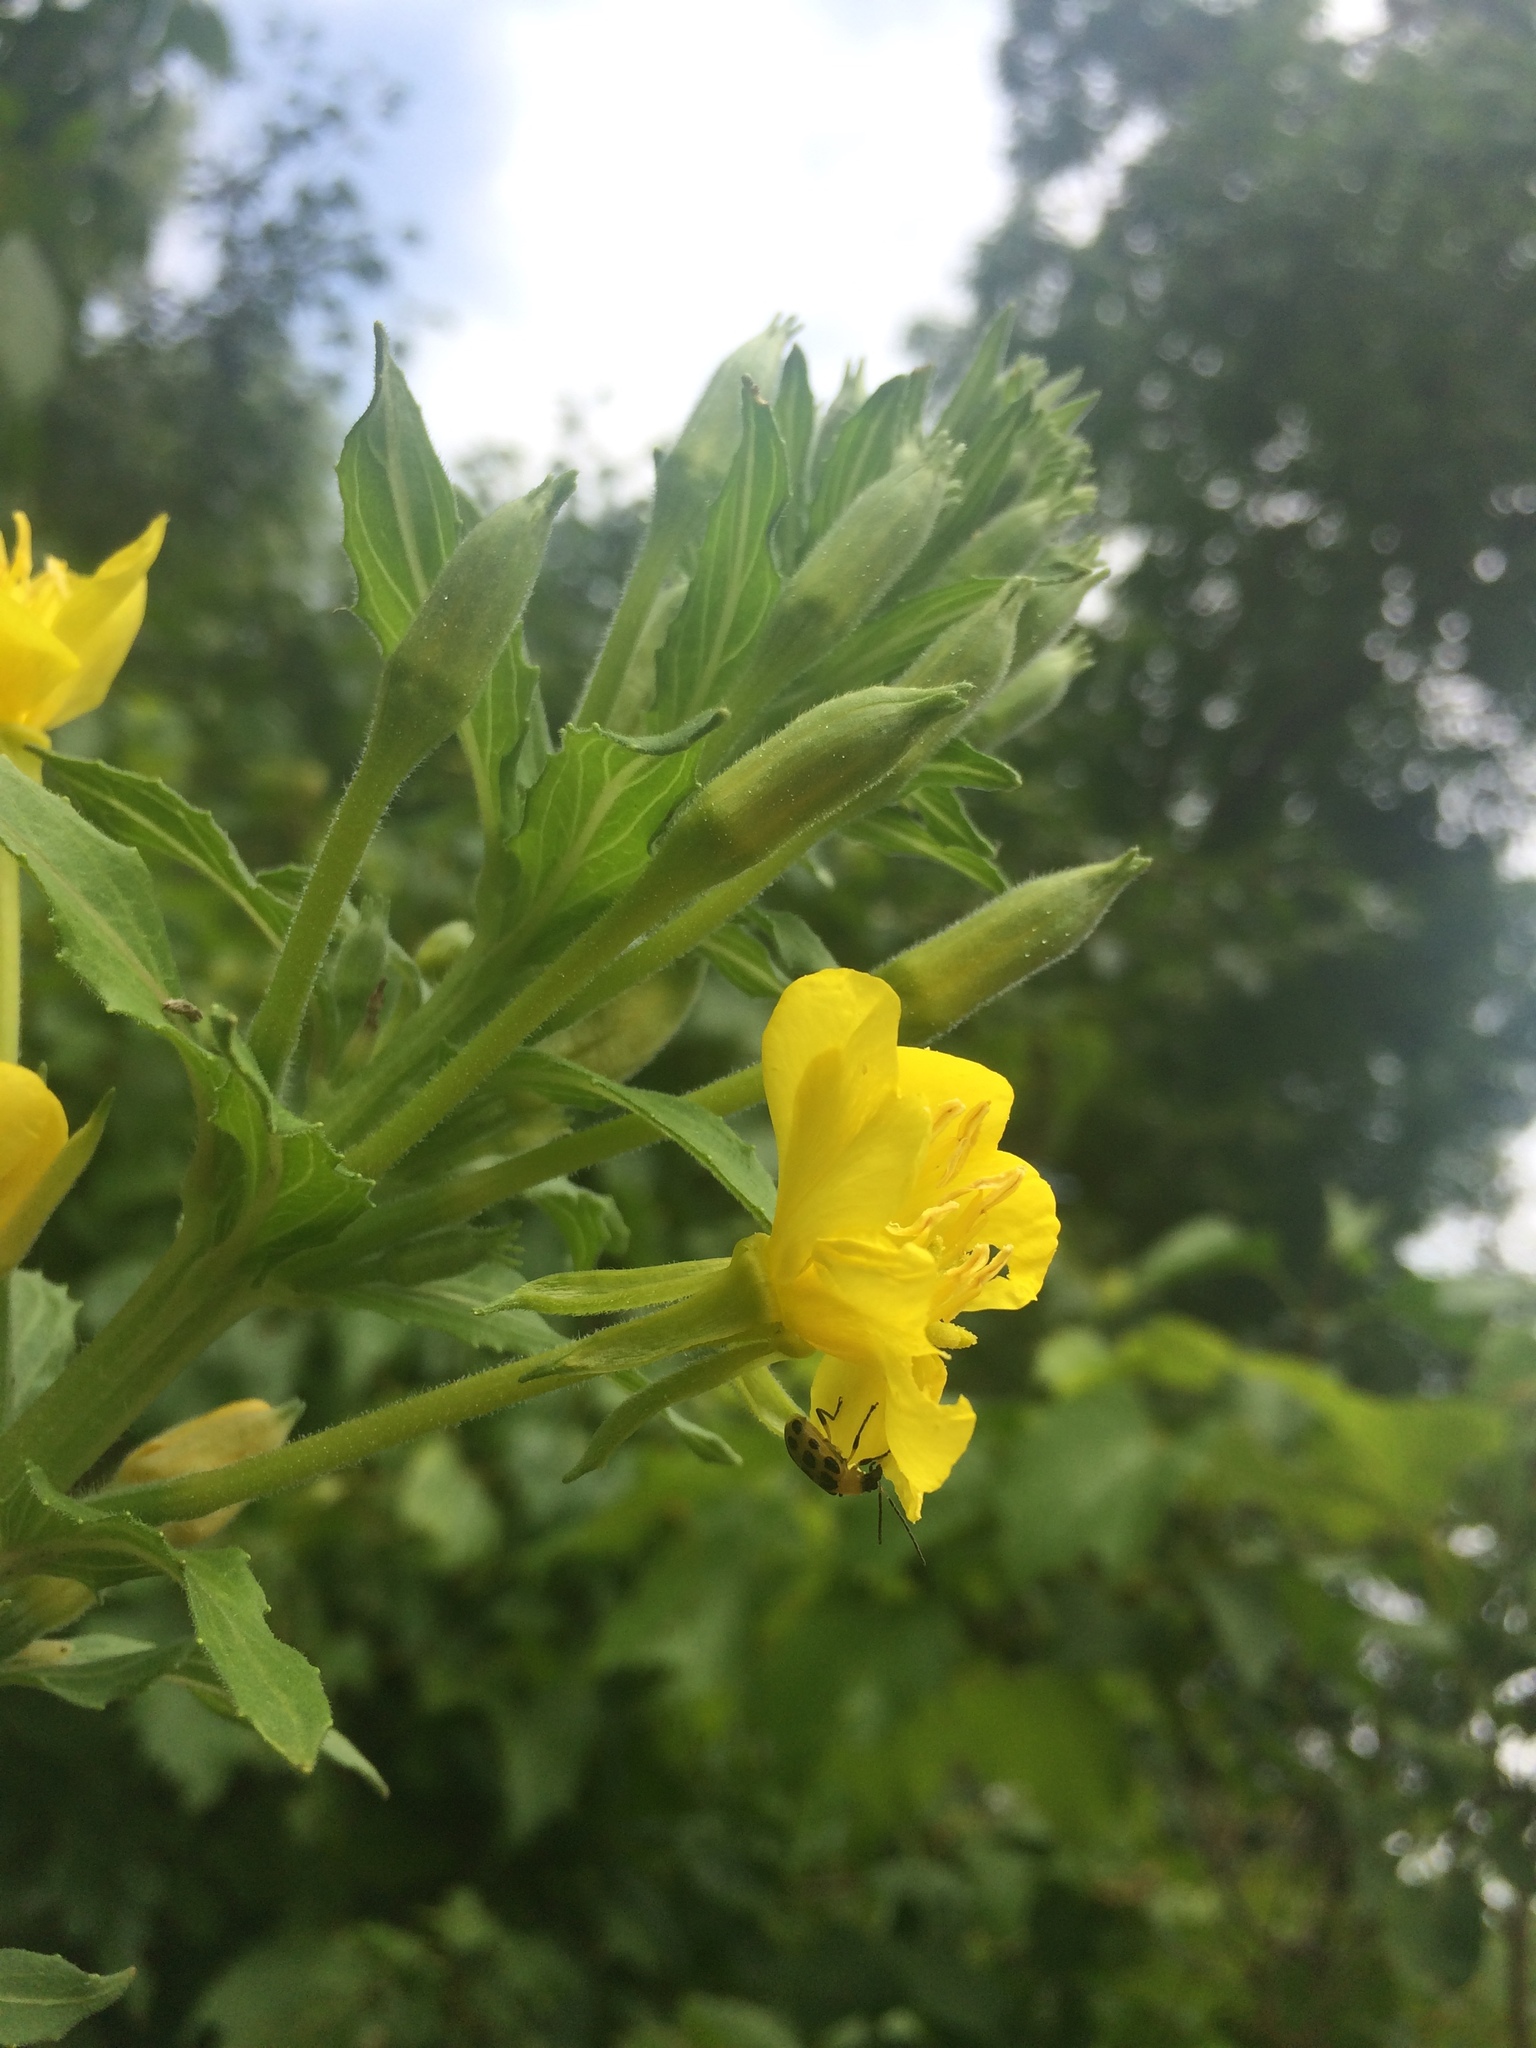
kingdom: Animalia
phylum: Arthropoda
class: Insecta
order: Coleoptera
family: Chrysomelidae
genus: Diabrotica
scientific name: Diabrotica undecimpunctata
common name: Spotted cucumber beetle
